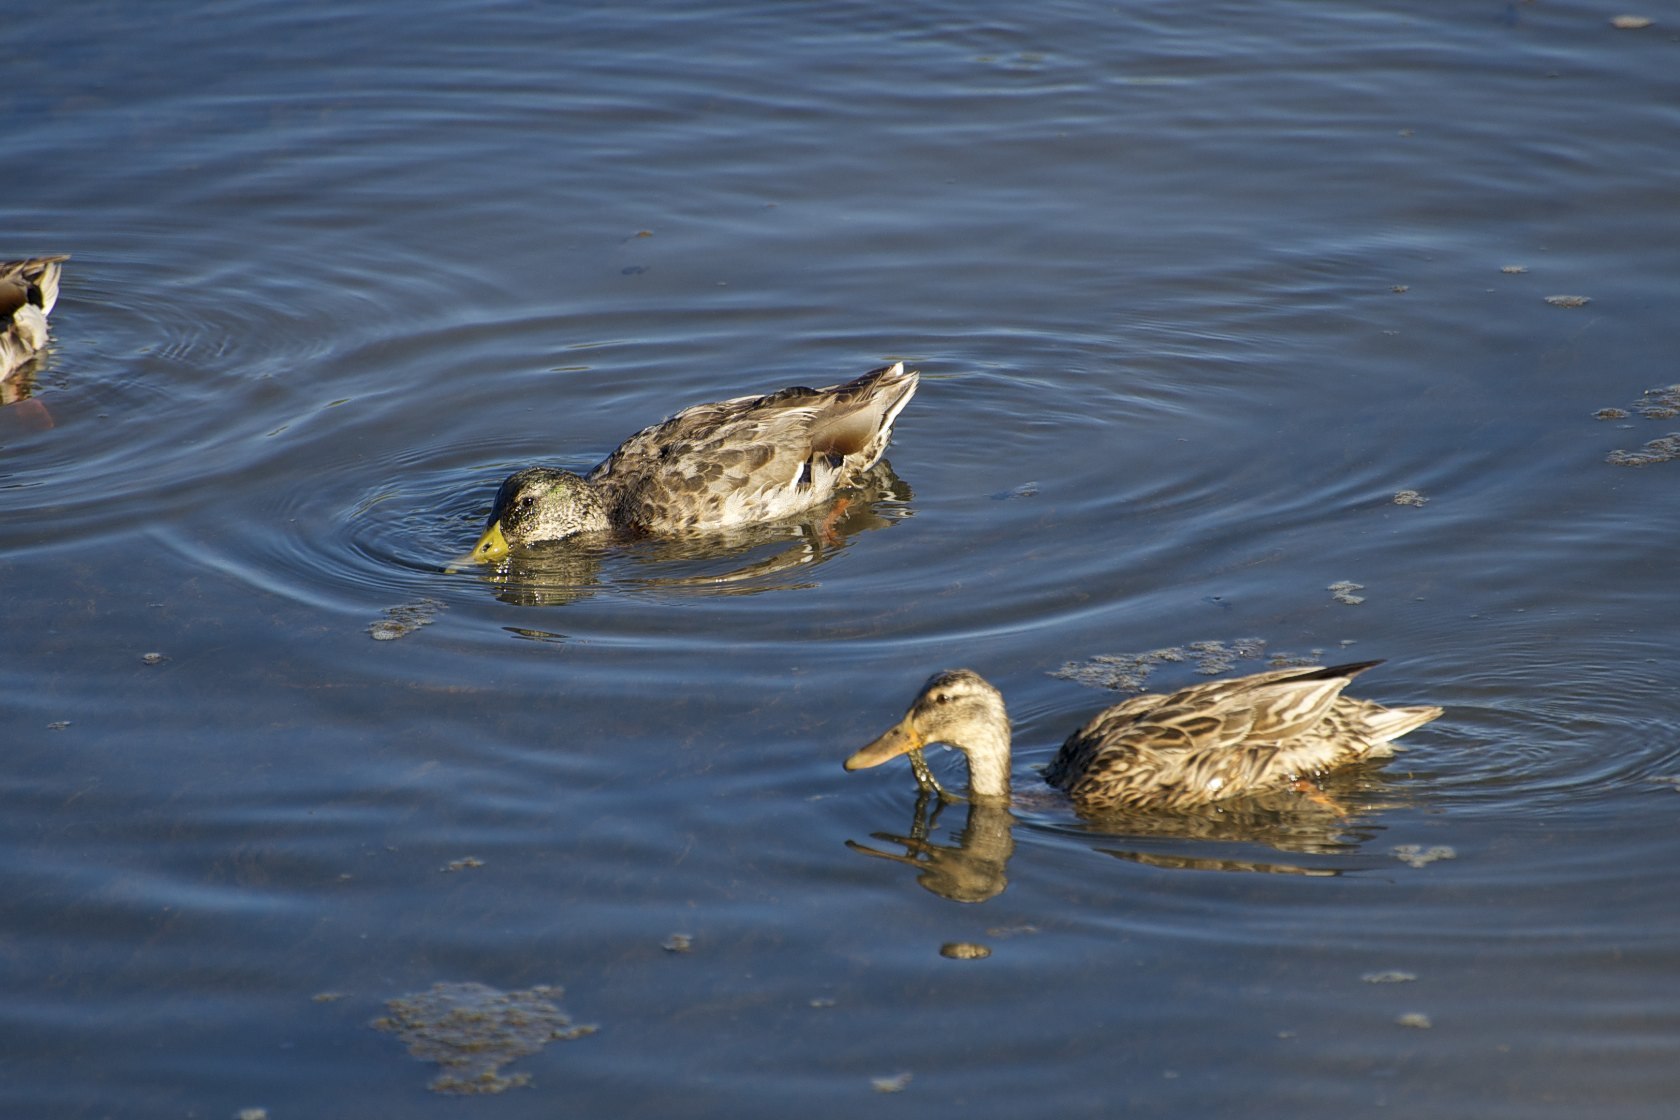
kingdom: Animalia
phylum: Chordata
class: Aves
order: Anseriformes
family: Anatidae
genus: Anas
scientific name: Anas platyrhynchos
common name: Mallard
